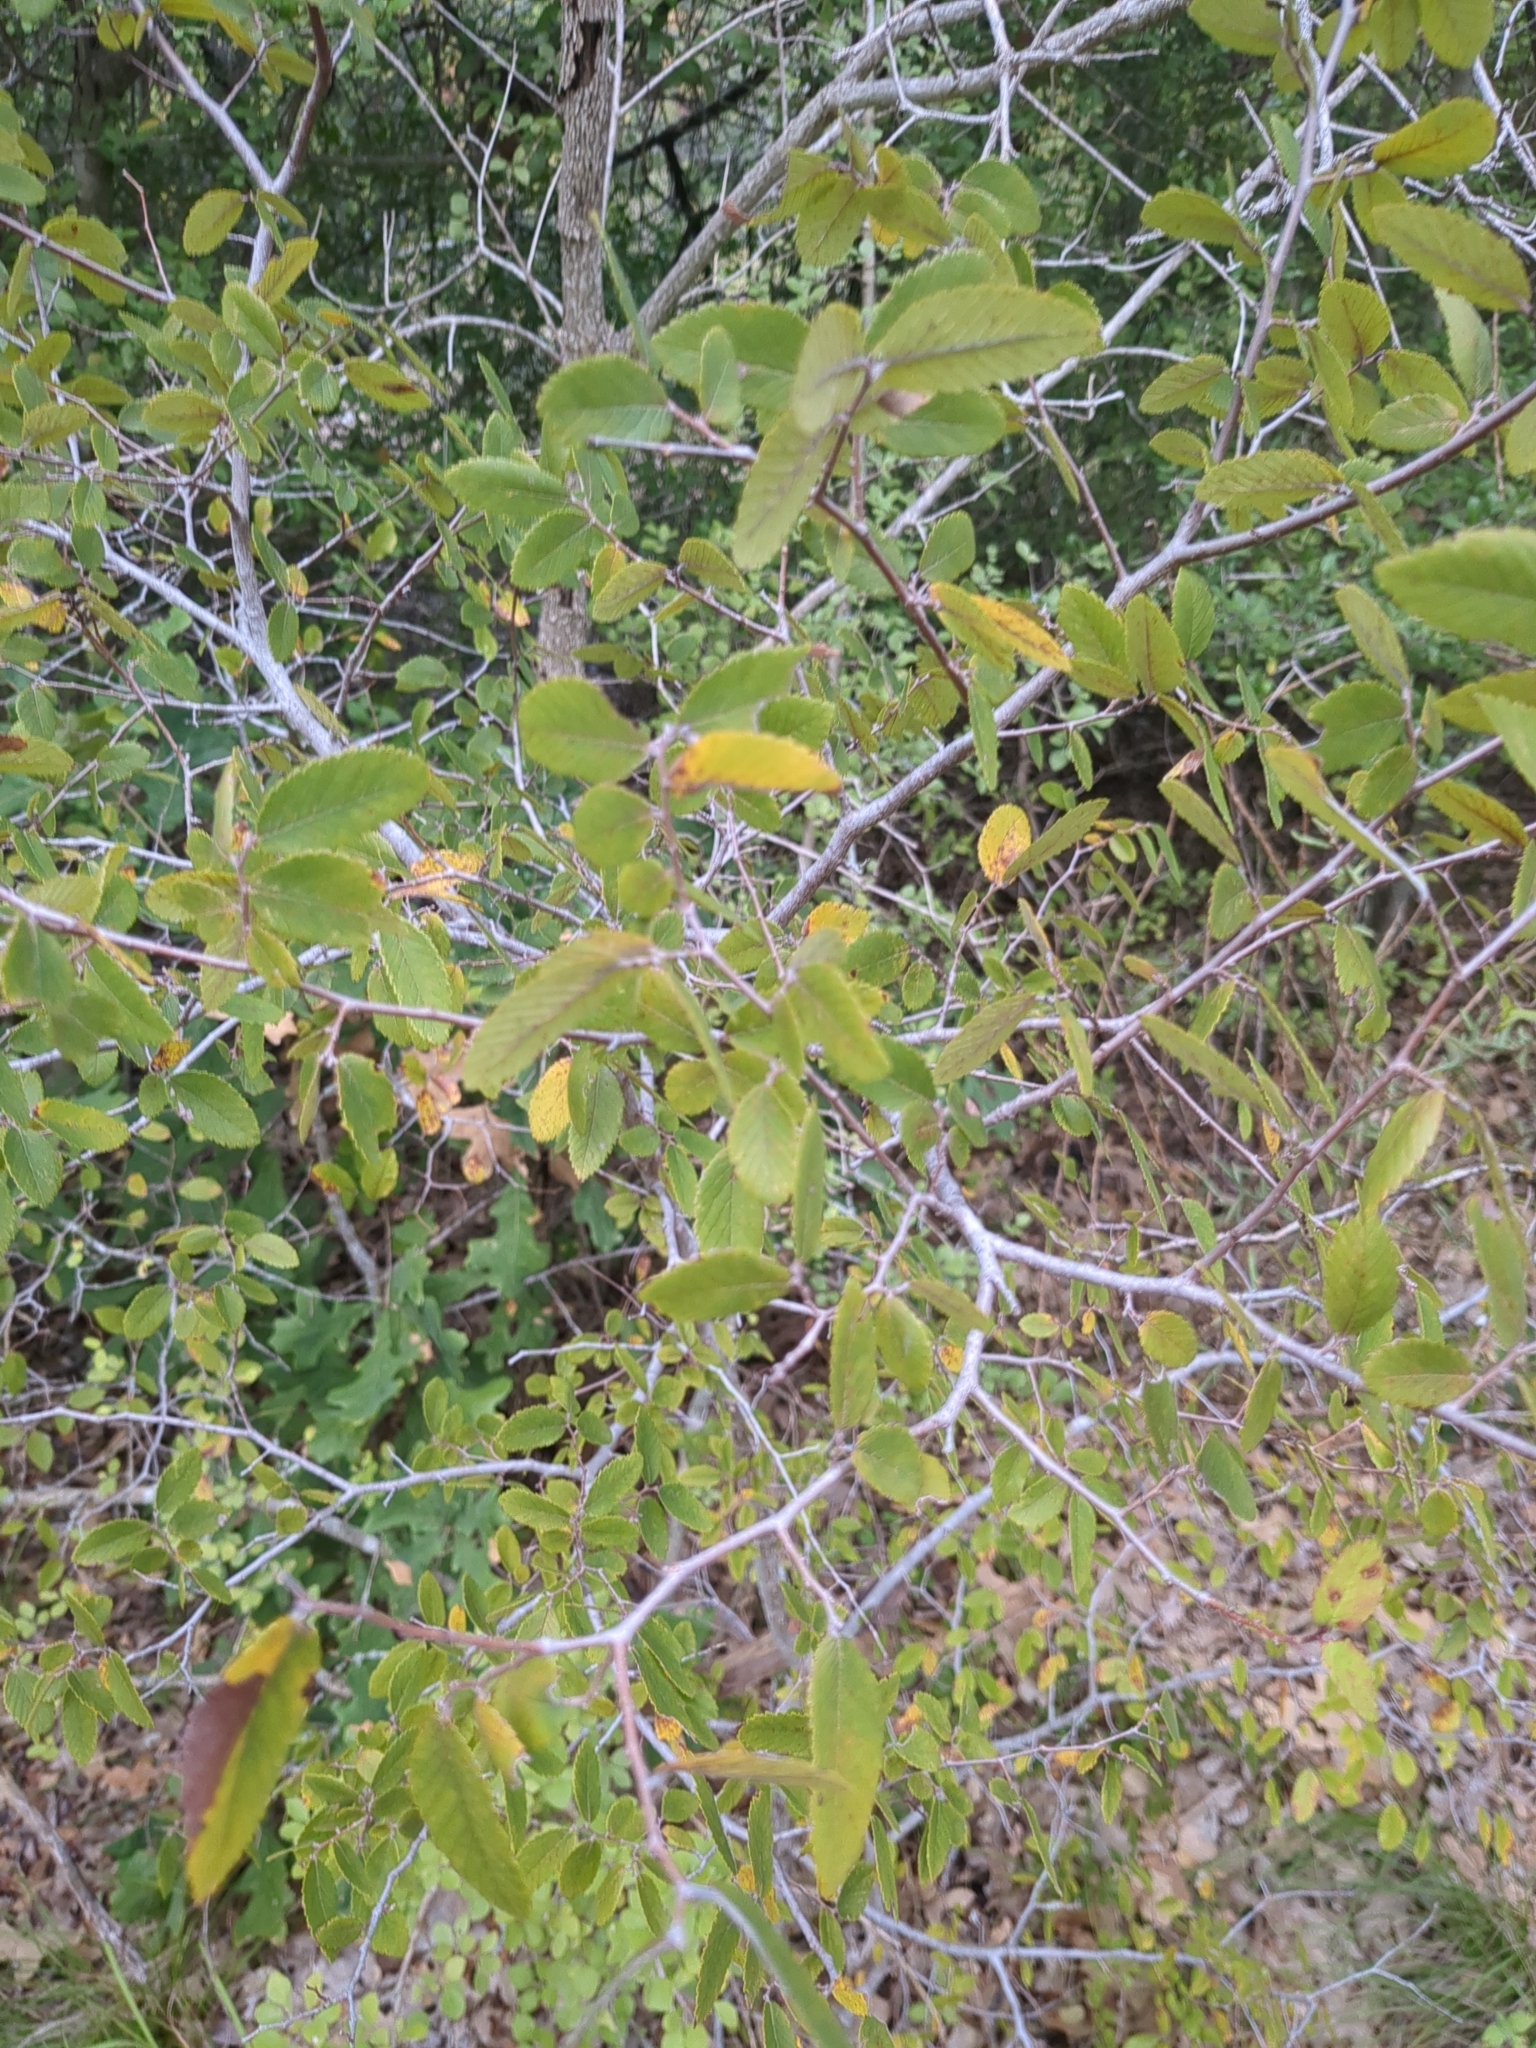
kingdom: Plantae
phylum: Tracheophyta
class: Magnoliopsida
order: Rosales
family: Ulmaceae
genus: Ulmus
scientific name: Ulmus crassifolia
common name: Basket elm
